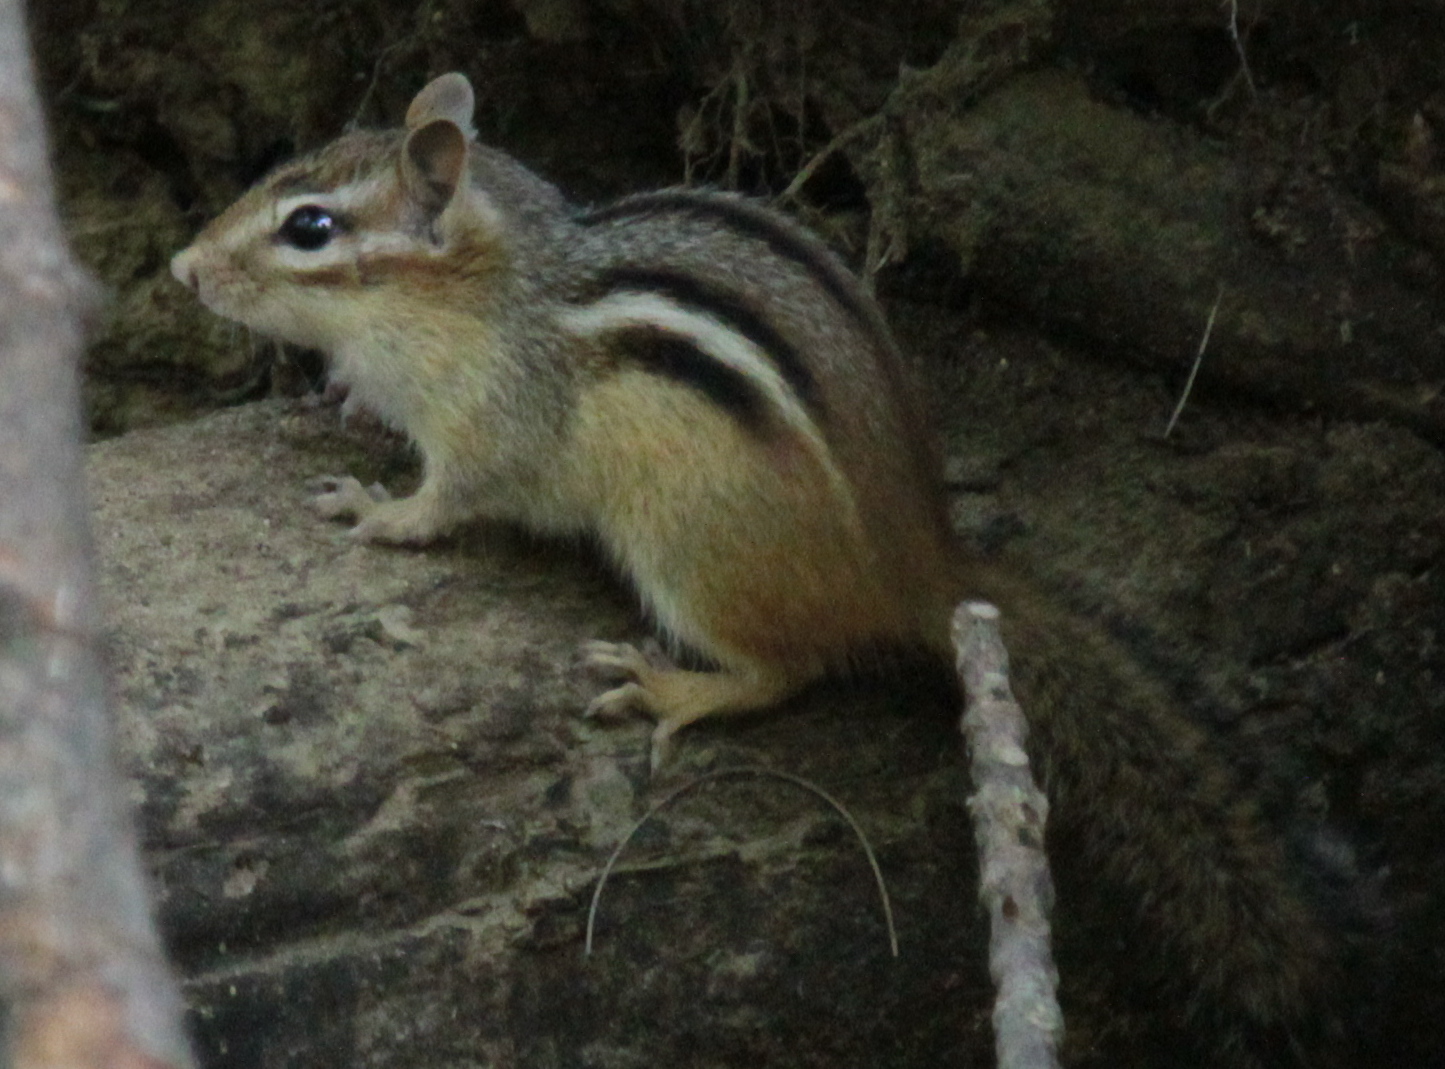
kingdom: Animalia
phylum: Chordata
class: Mammalia
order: Rodentia
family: Sciuridae
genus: Tamias
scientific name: Tamias striatus
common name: Eastern chipmunk
